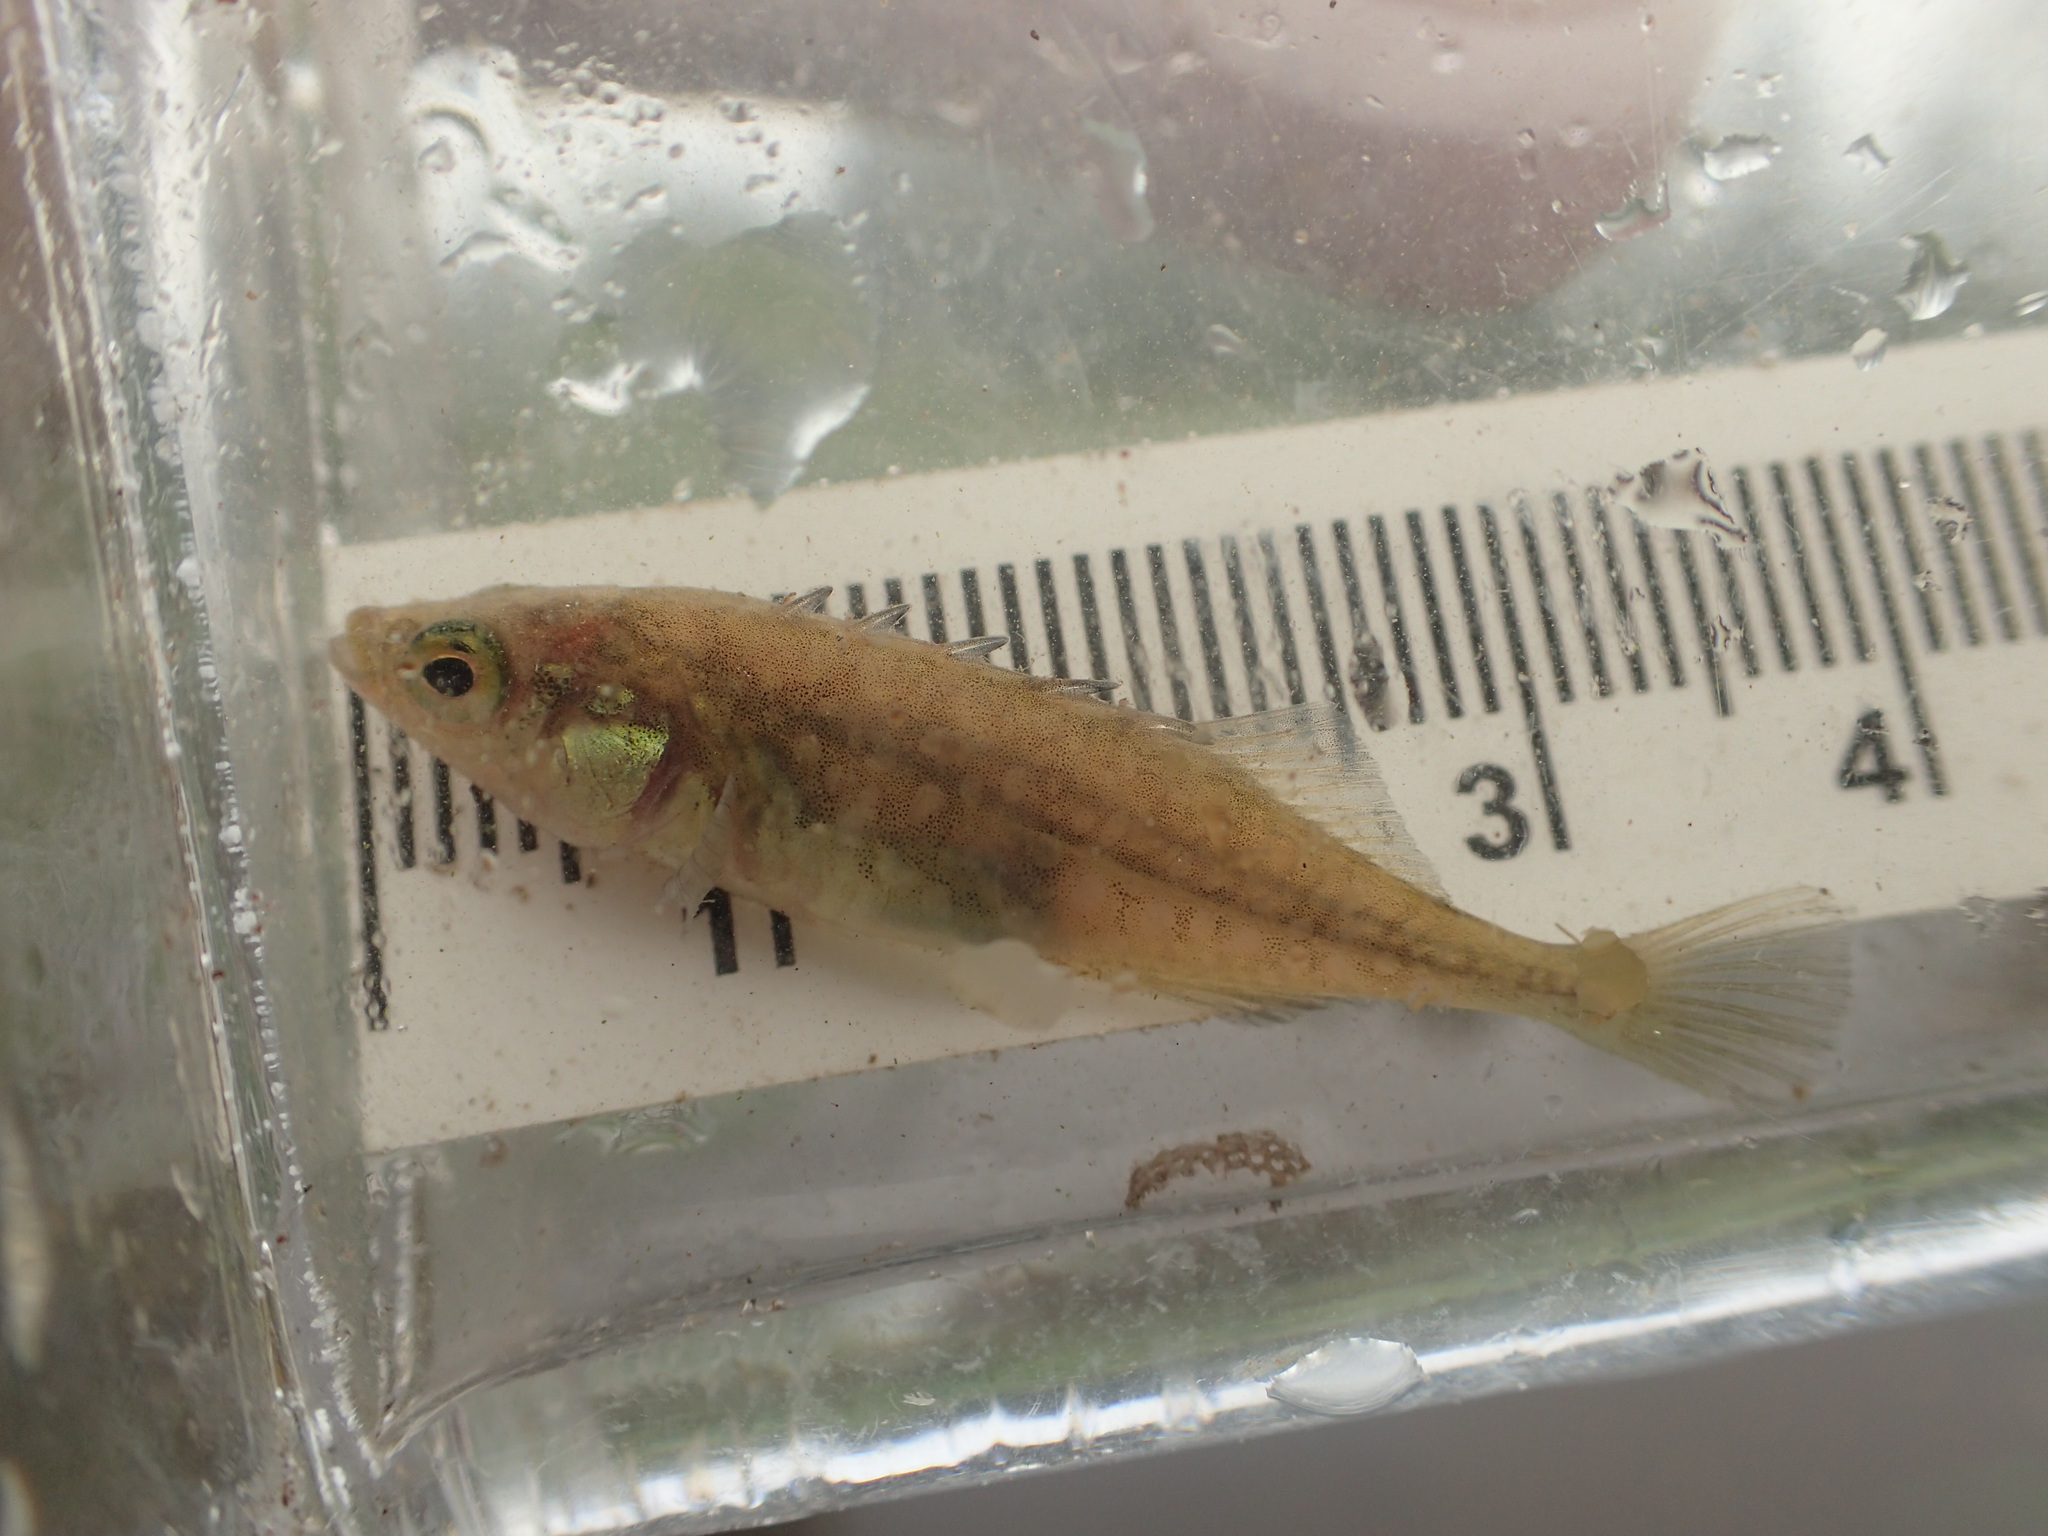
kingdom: Animalia
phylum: Chordata
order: Gasterosteiformes
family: Gasterosteidae
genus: Culaea
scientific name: Culaea inconstans
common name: Brook stickleback
